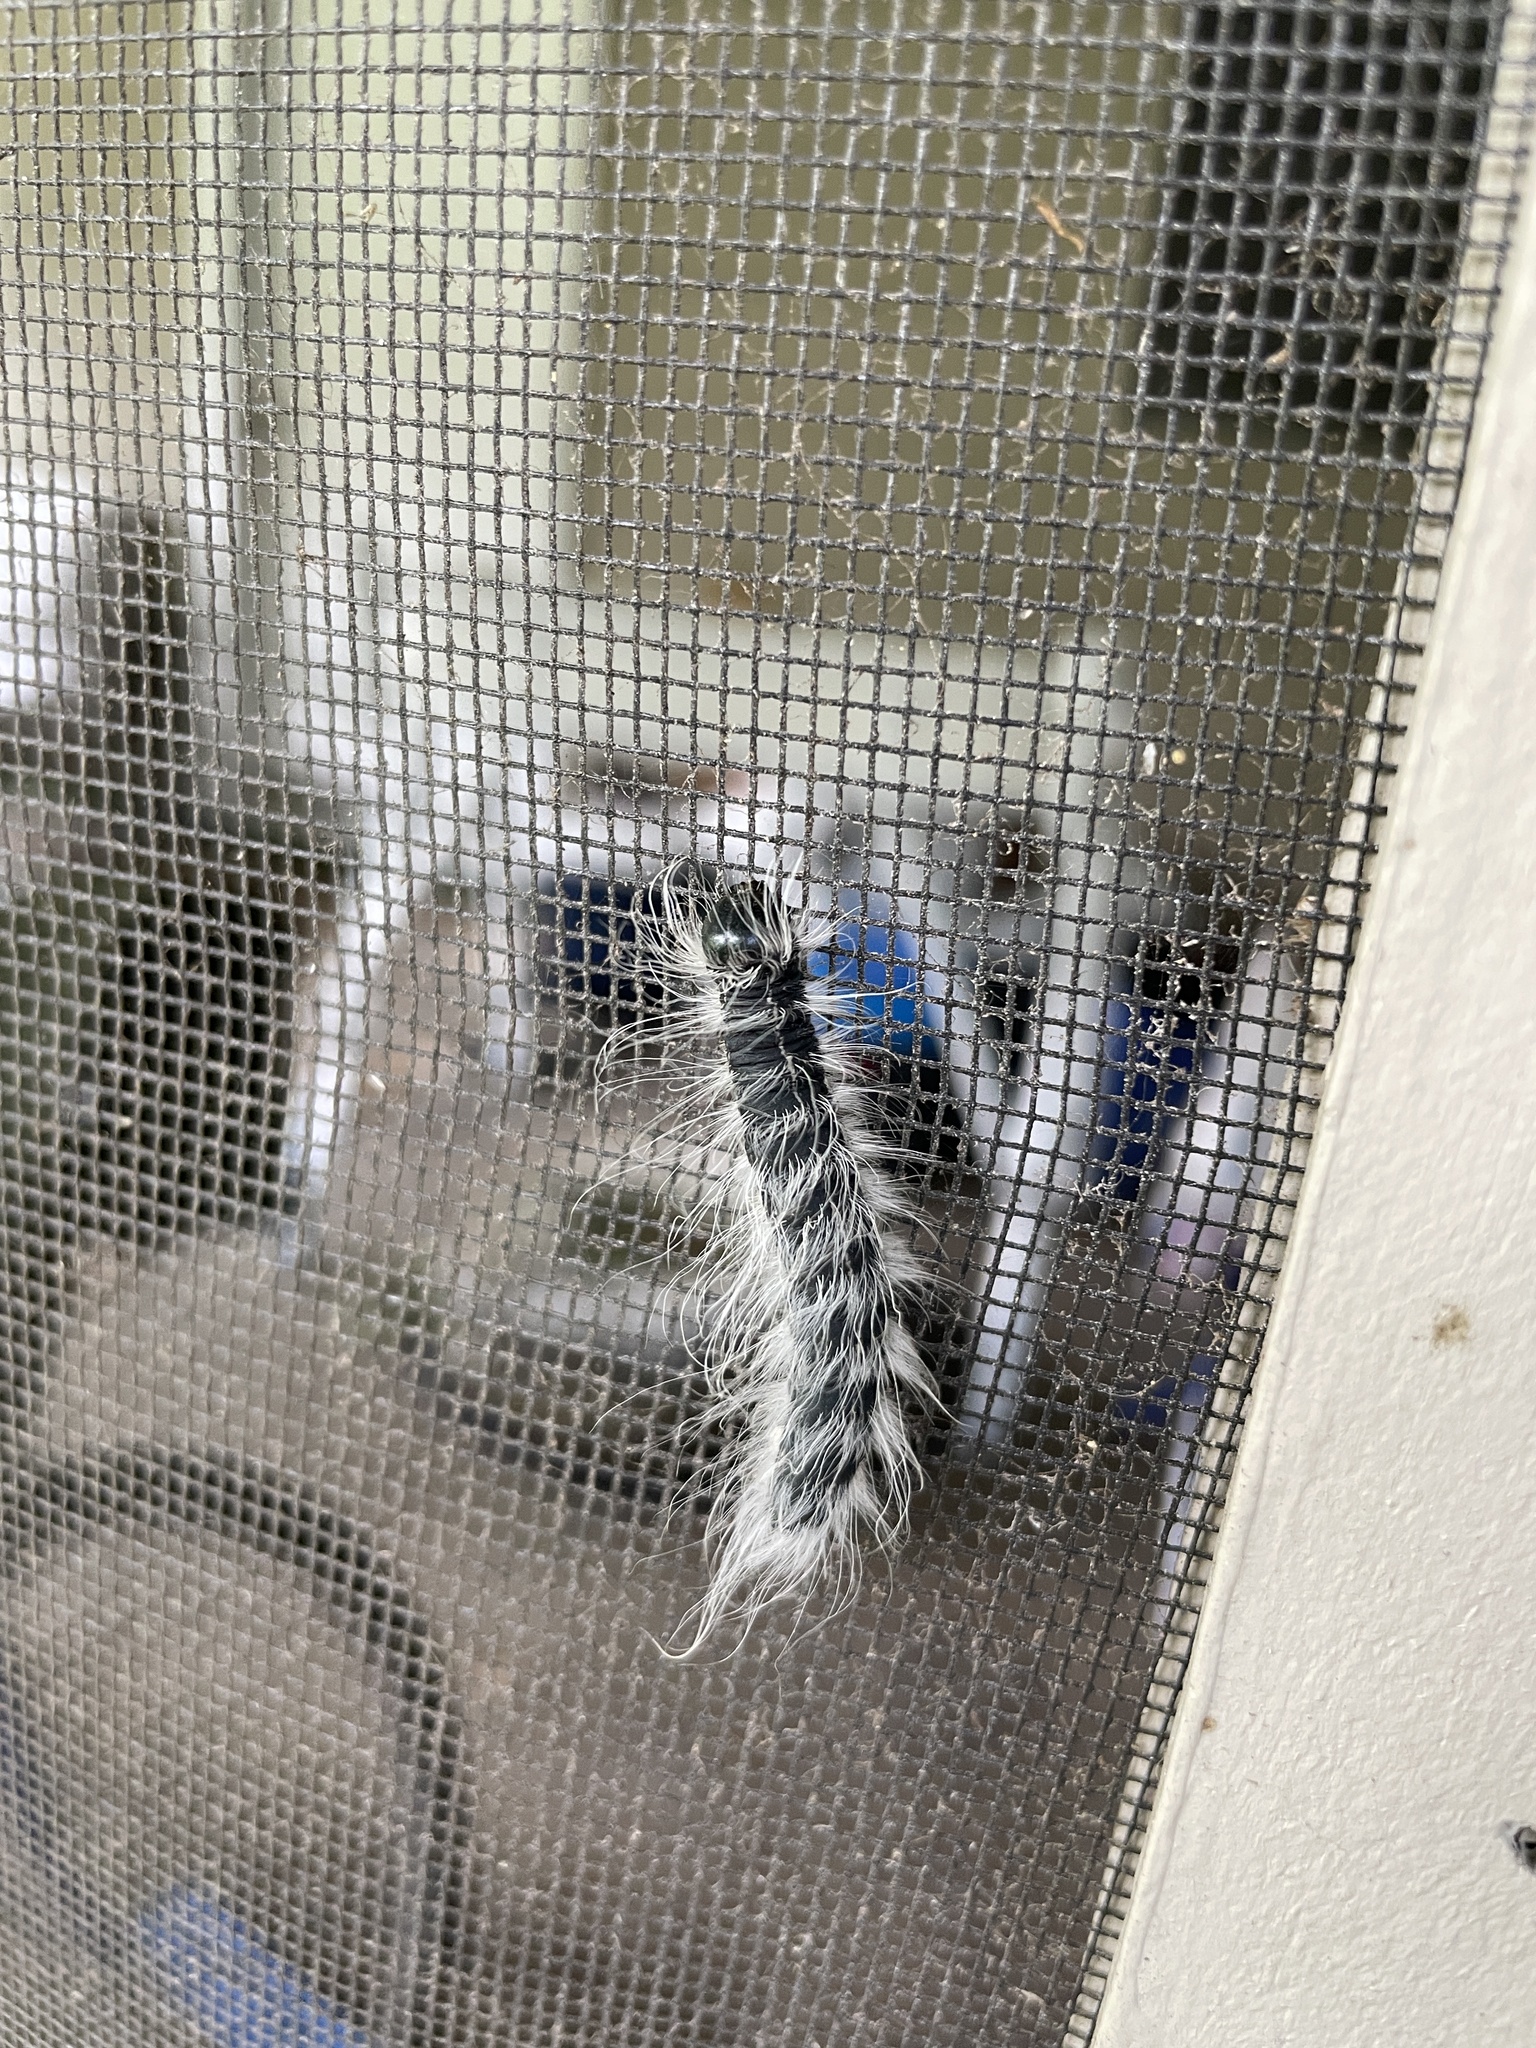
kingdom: Animalia
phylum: Arthropoda
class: Insecta
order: Lepidoptera
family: Notodontidae
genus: Datana
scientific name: Datana integerrima
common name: Walnut caterpillar
